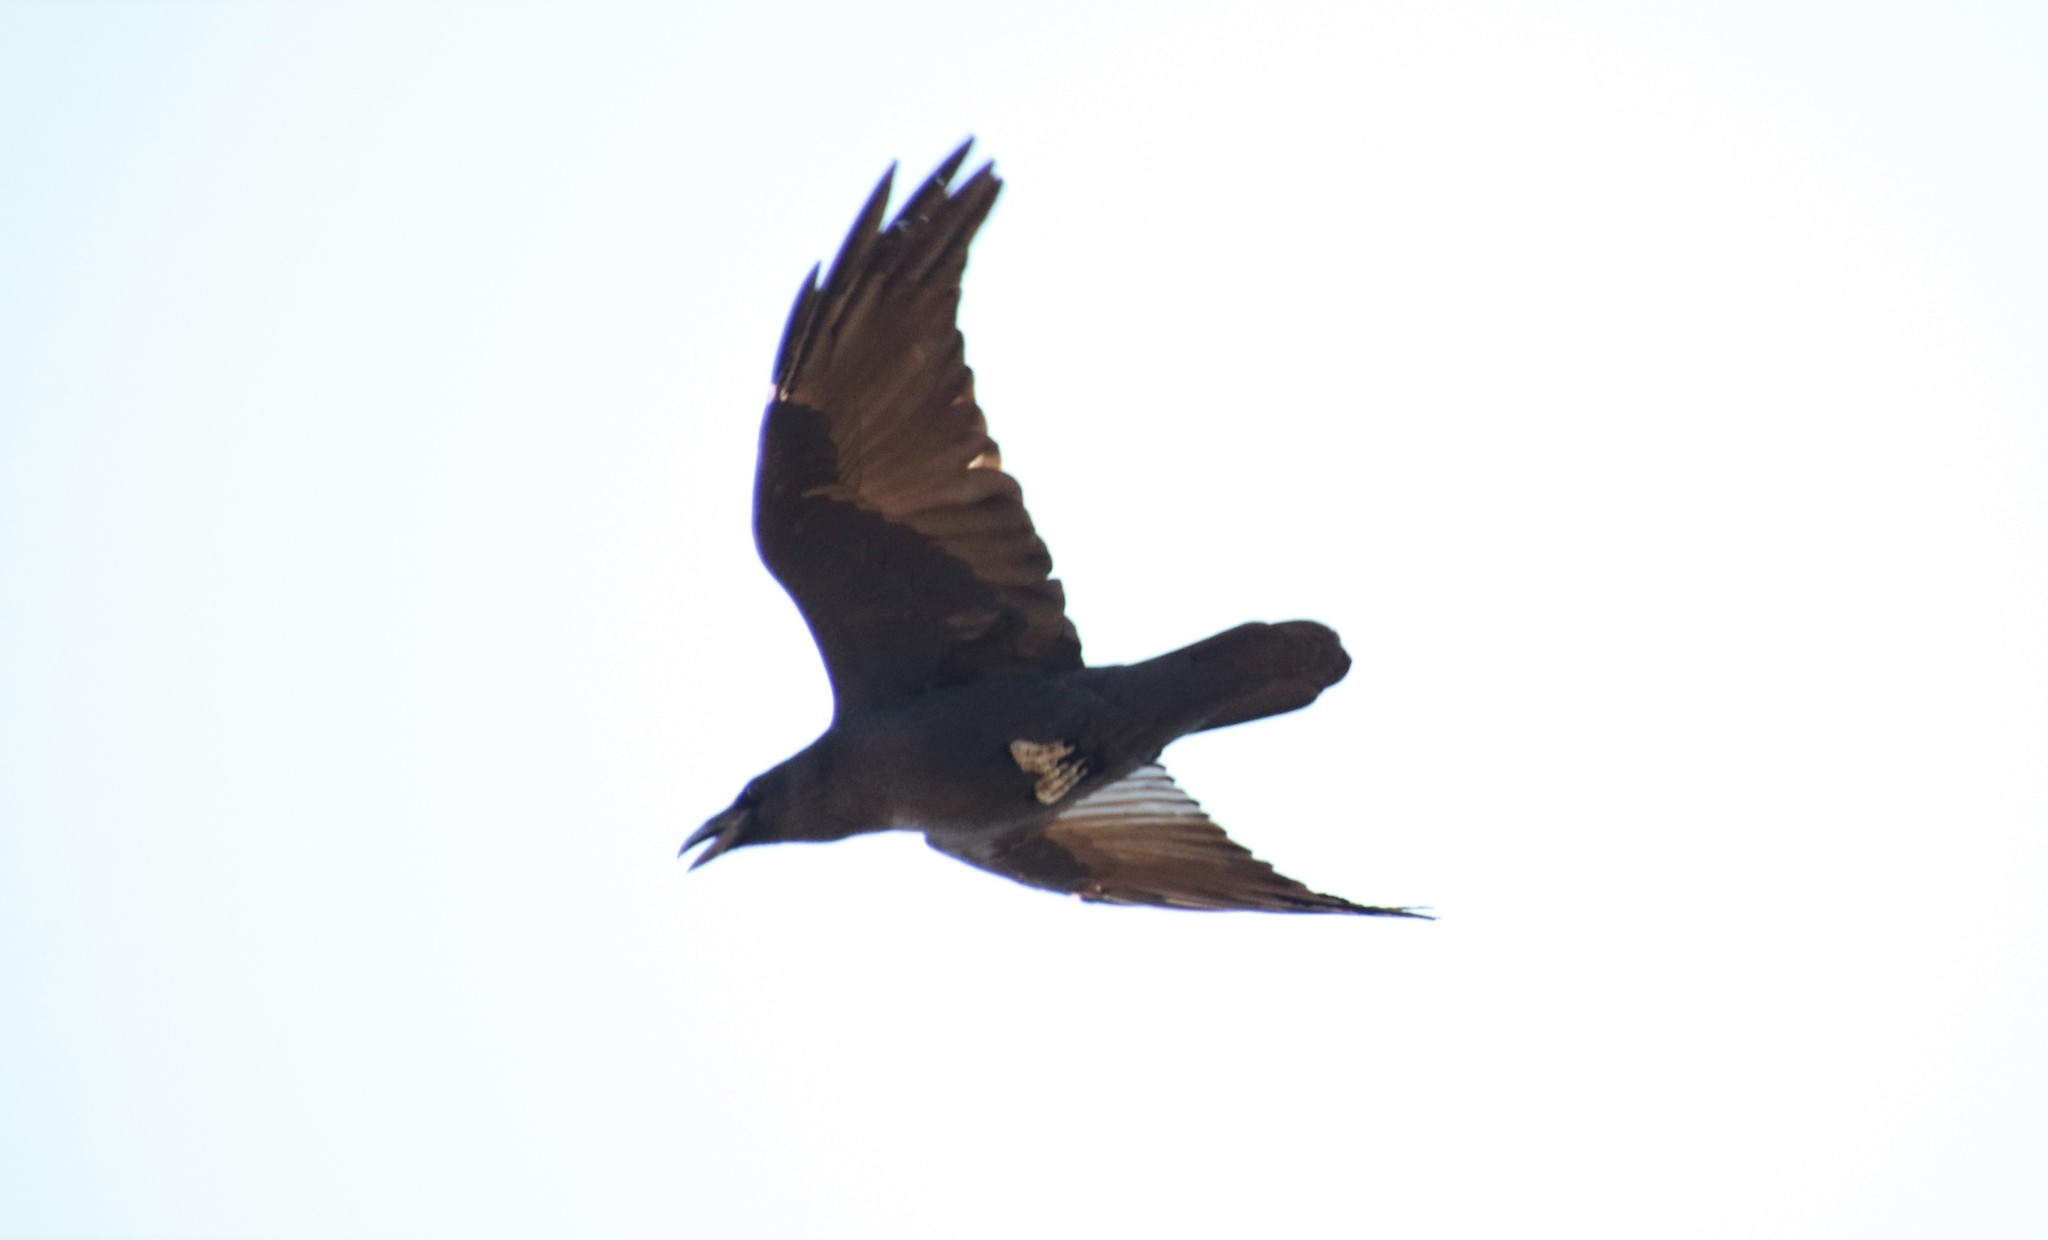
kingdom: Animalia
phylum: Chordata
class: Aves
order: Passeriformes
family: Corvidae
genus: Corvus
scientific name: Corvus corax
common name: Common raven
